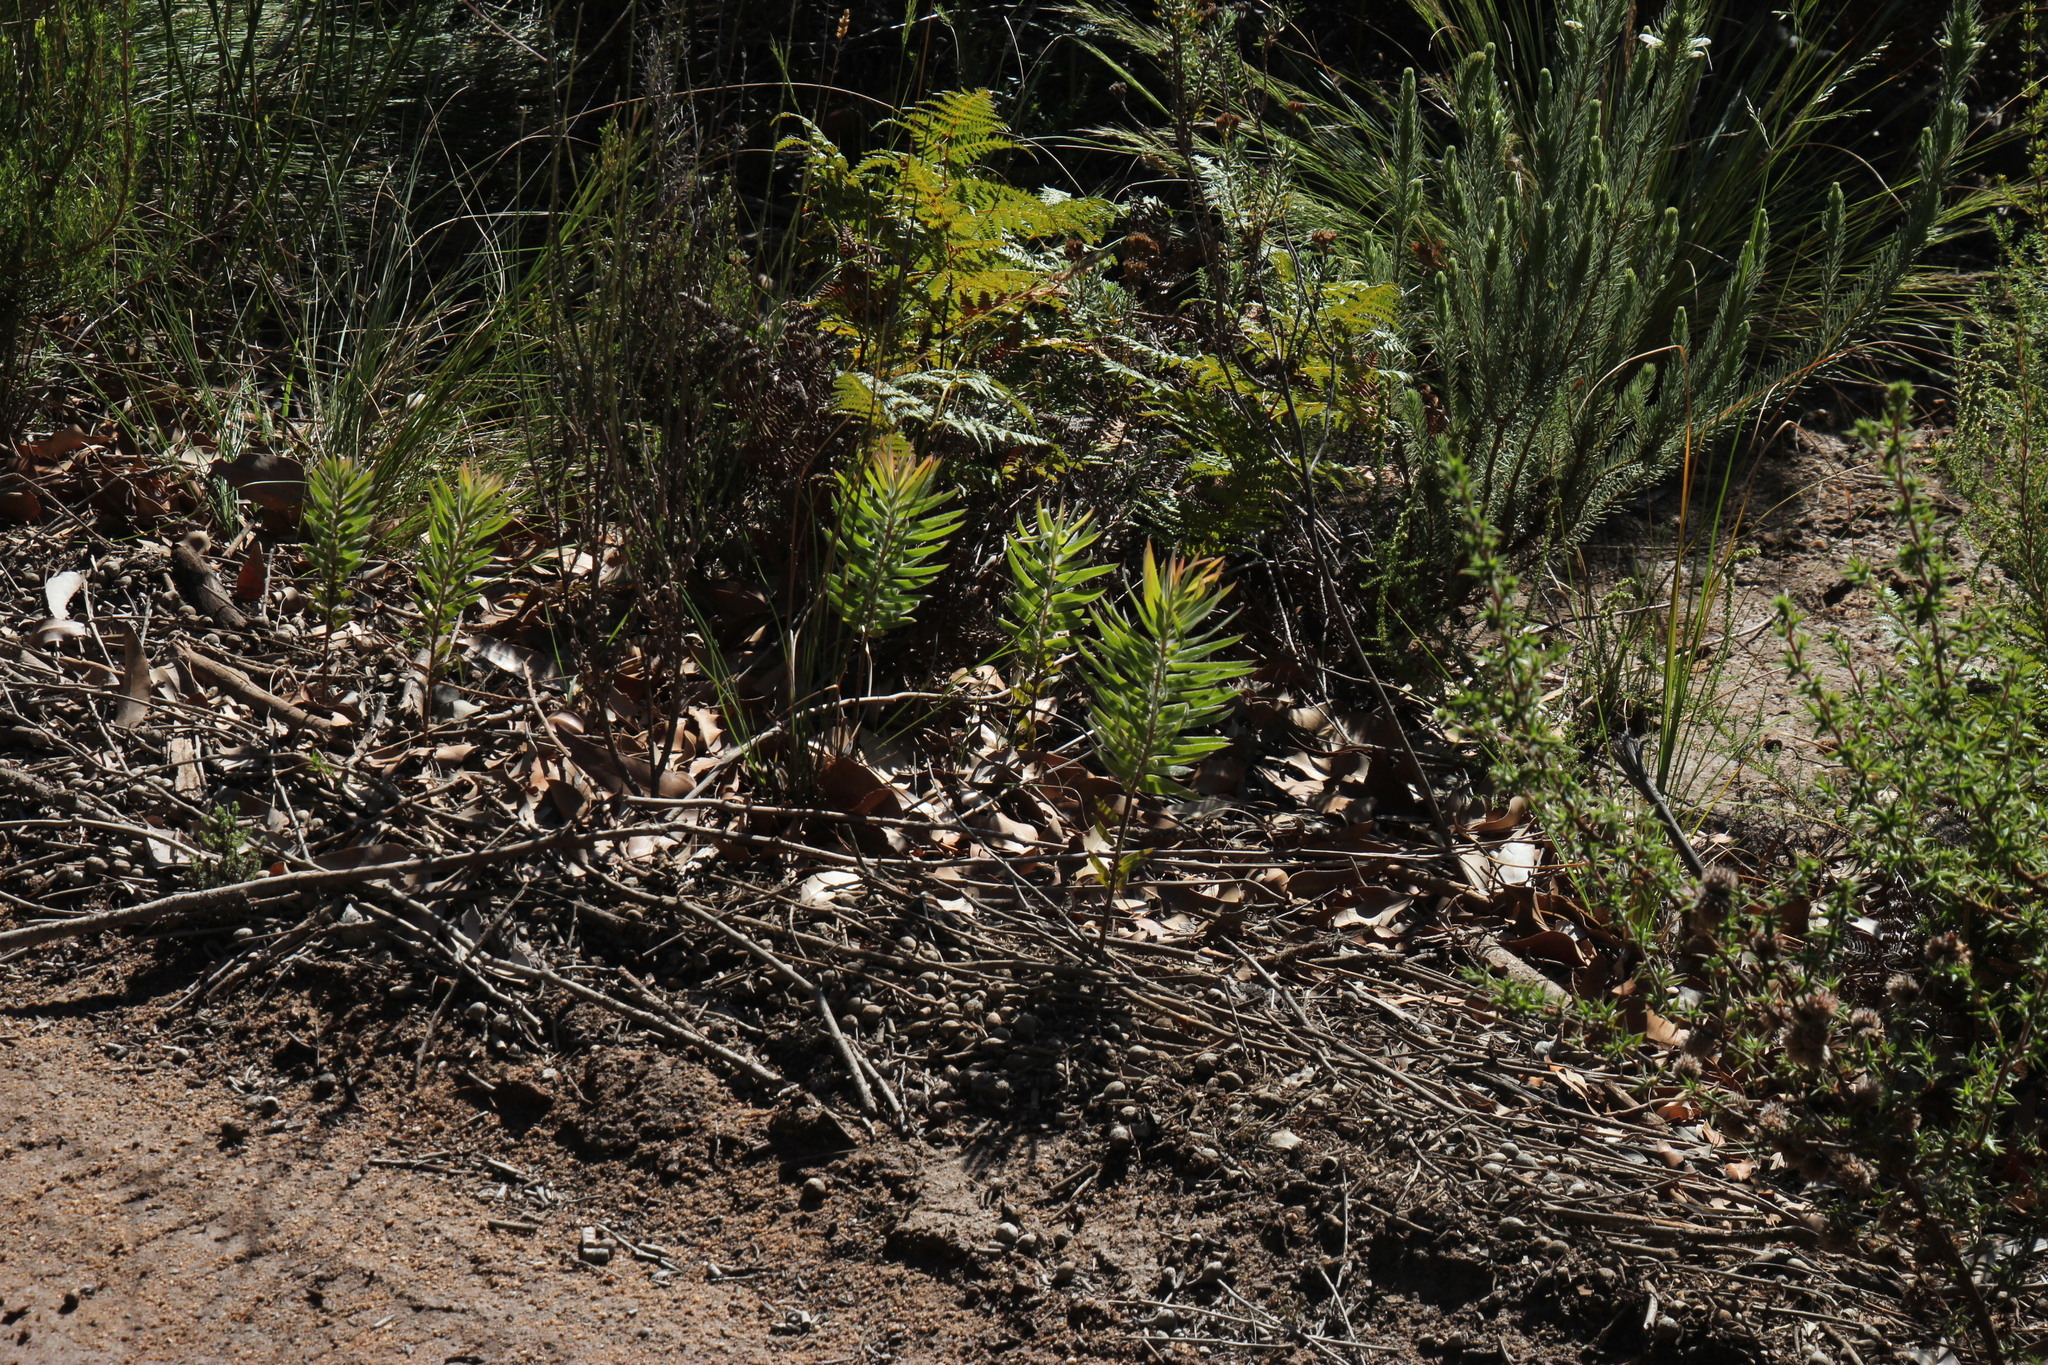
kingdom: Plantae
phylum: Tracheophyta
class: Magnoliopsida
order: Proteales
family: Proteaceae
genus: Leucadendron
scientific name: Leucadendron salicifolium
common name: Common stream conebush
